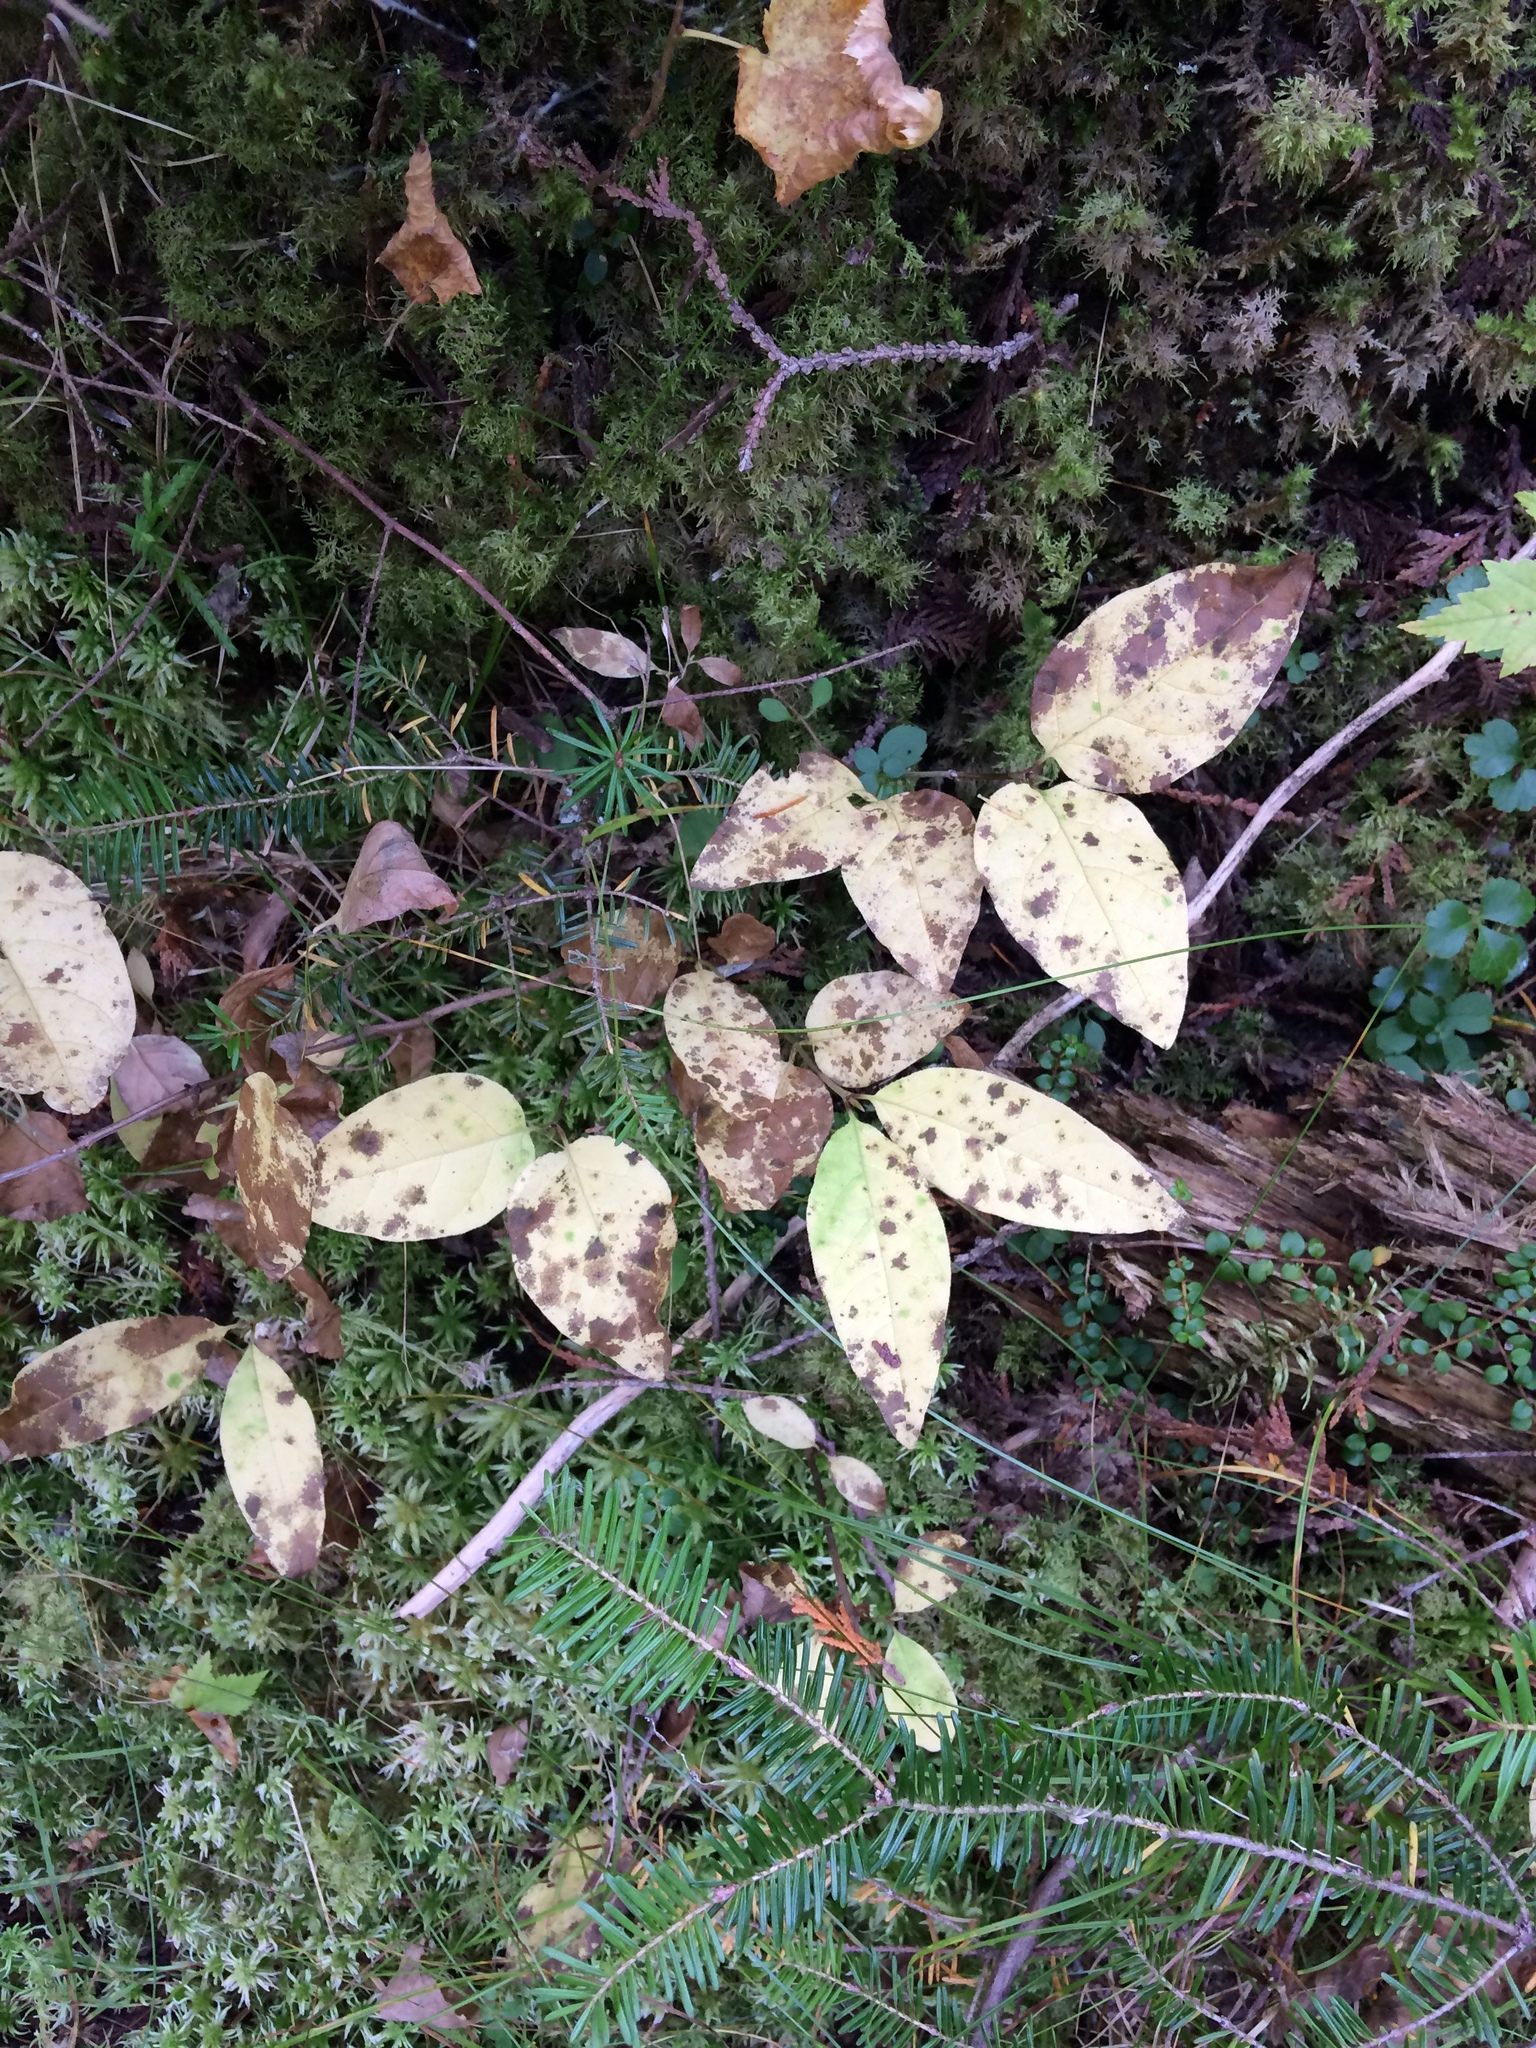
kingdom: Plantae
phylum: Tracheophyta
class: Magnoliopsida
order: Dipsacales
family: Caprifoliaceae
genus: Lonicera
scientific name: Lonicera canadensis
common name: American fly-honeysuckle
